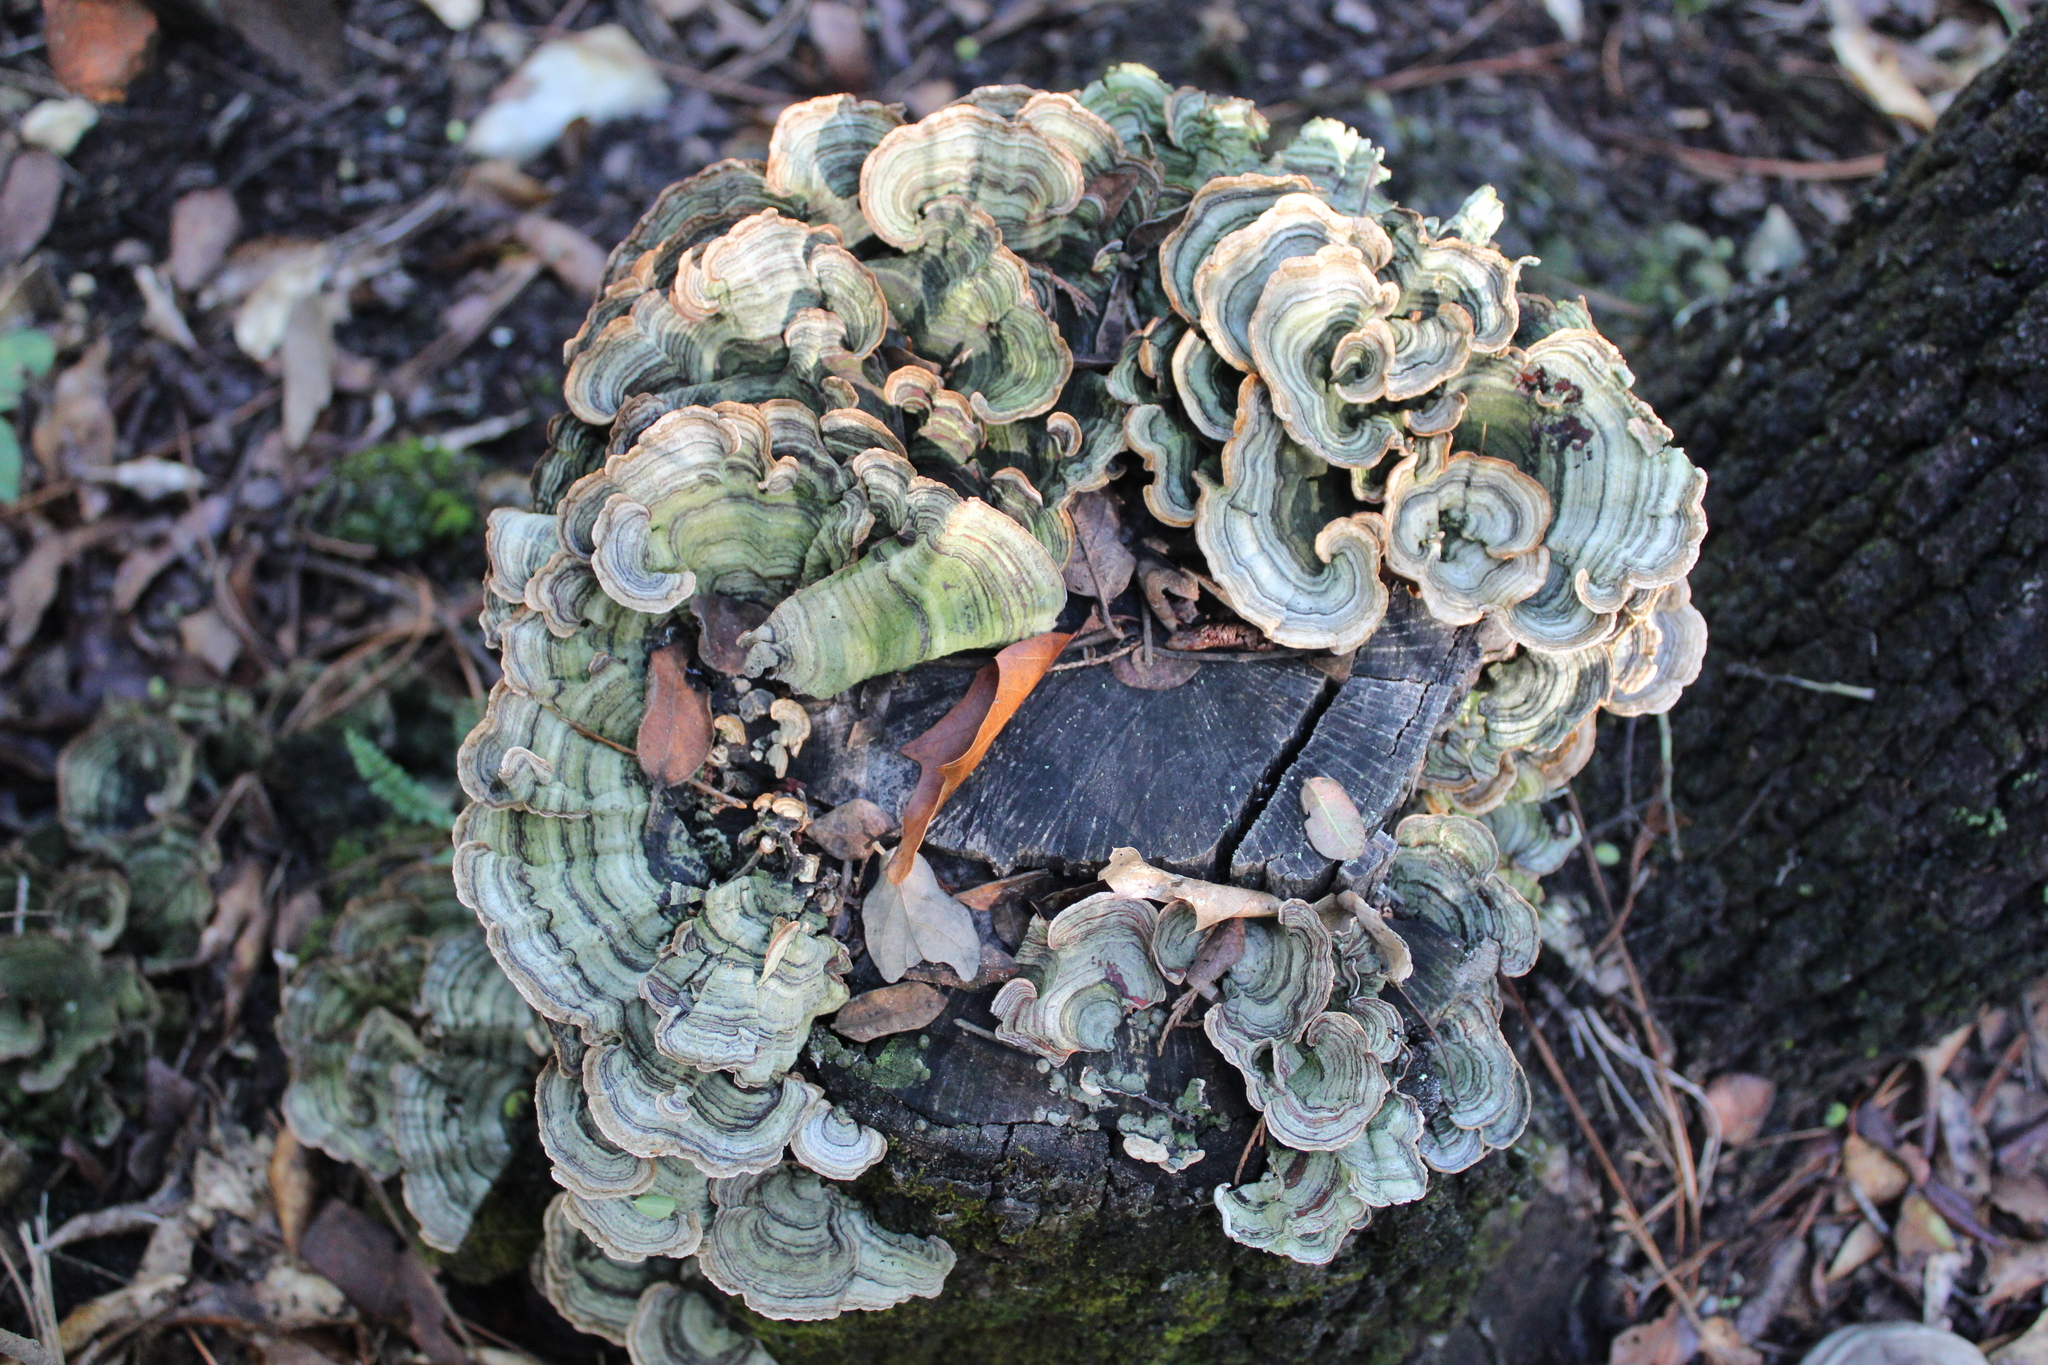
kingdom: Fungi
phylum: Basidiomycota
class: Agaricomycetes
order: Polyporales
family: Polyporaceae
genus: Trametes
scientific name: Trametes versicolor
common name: Turkeytail
